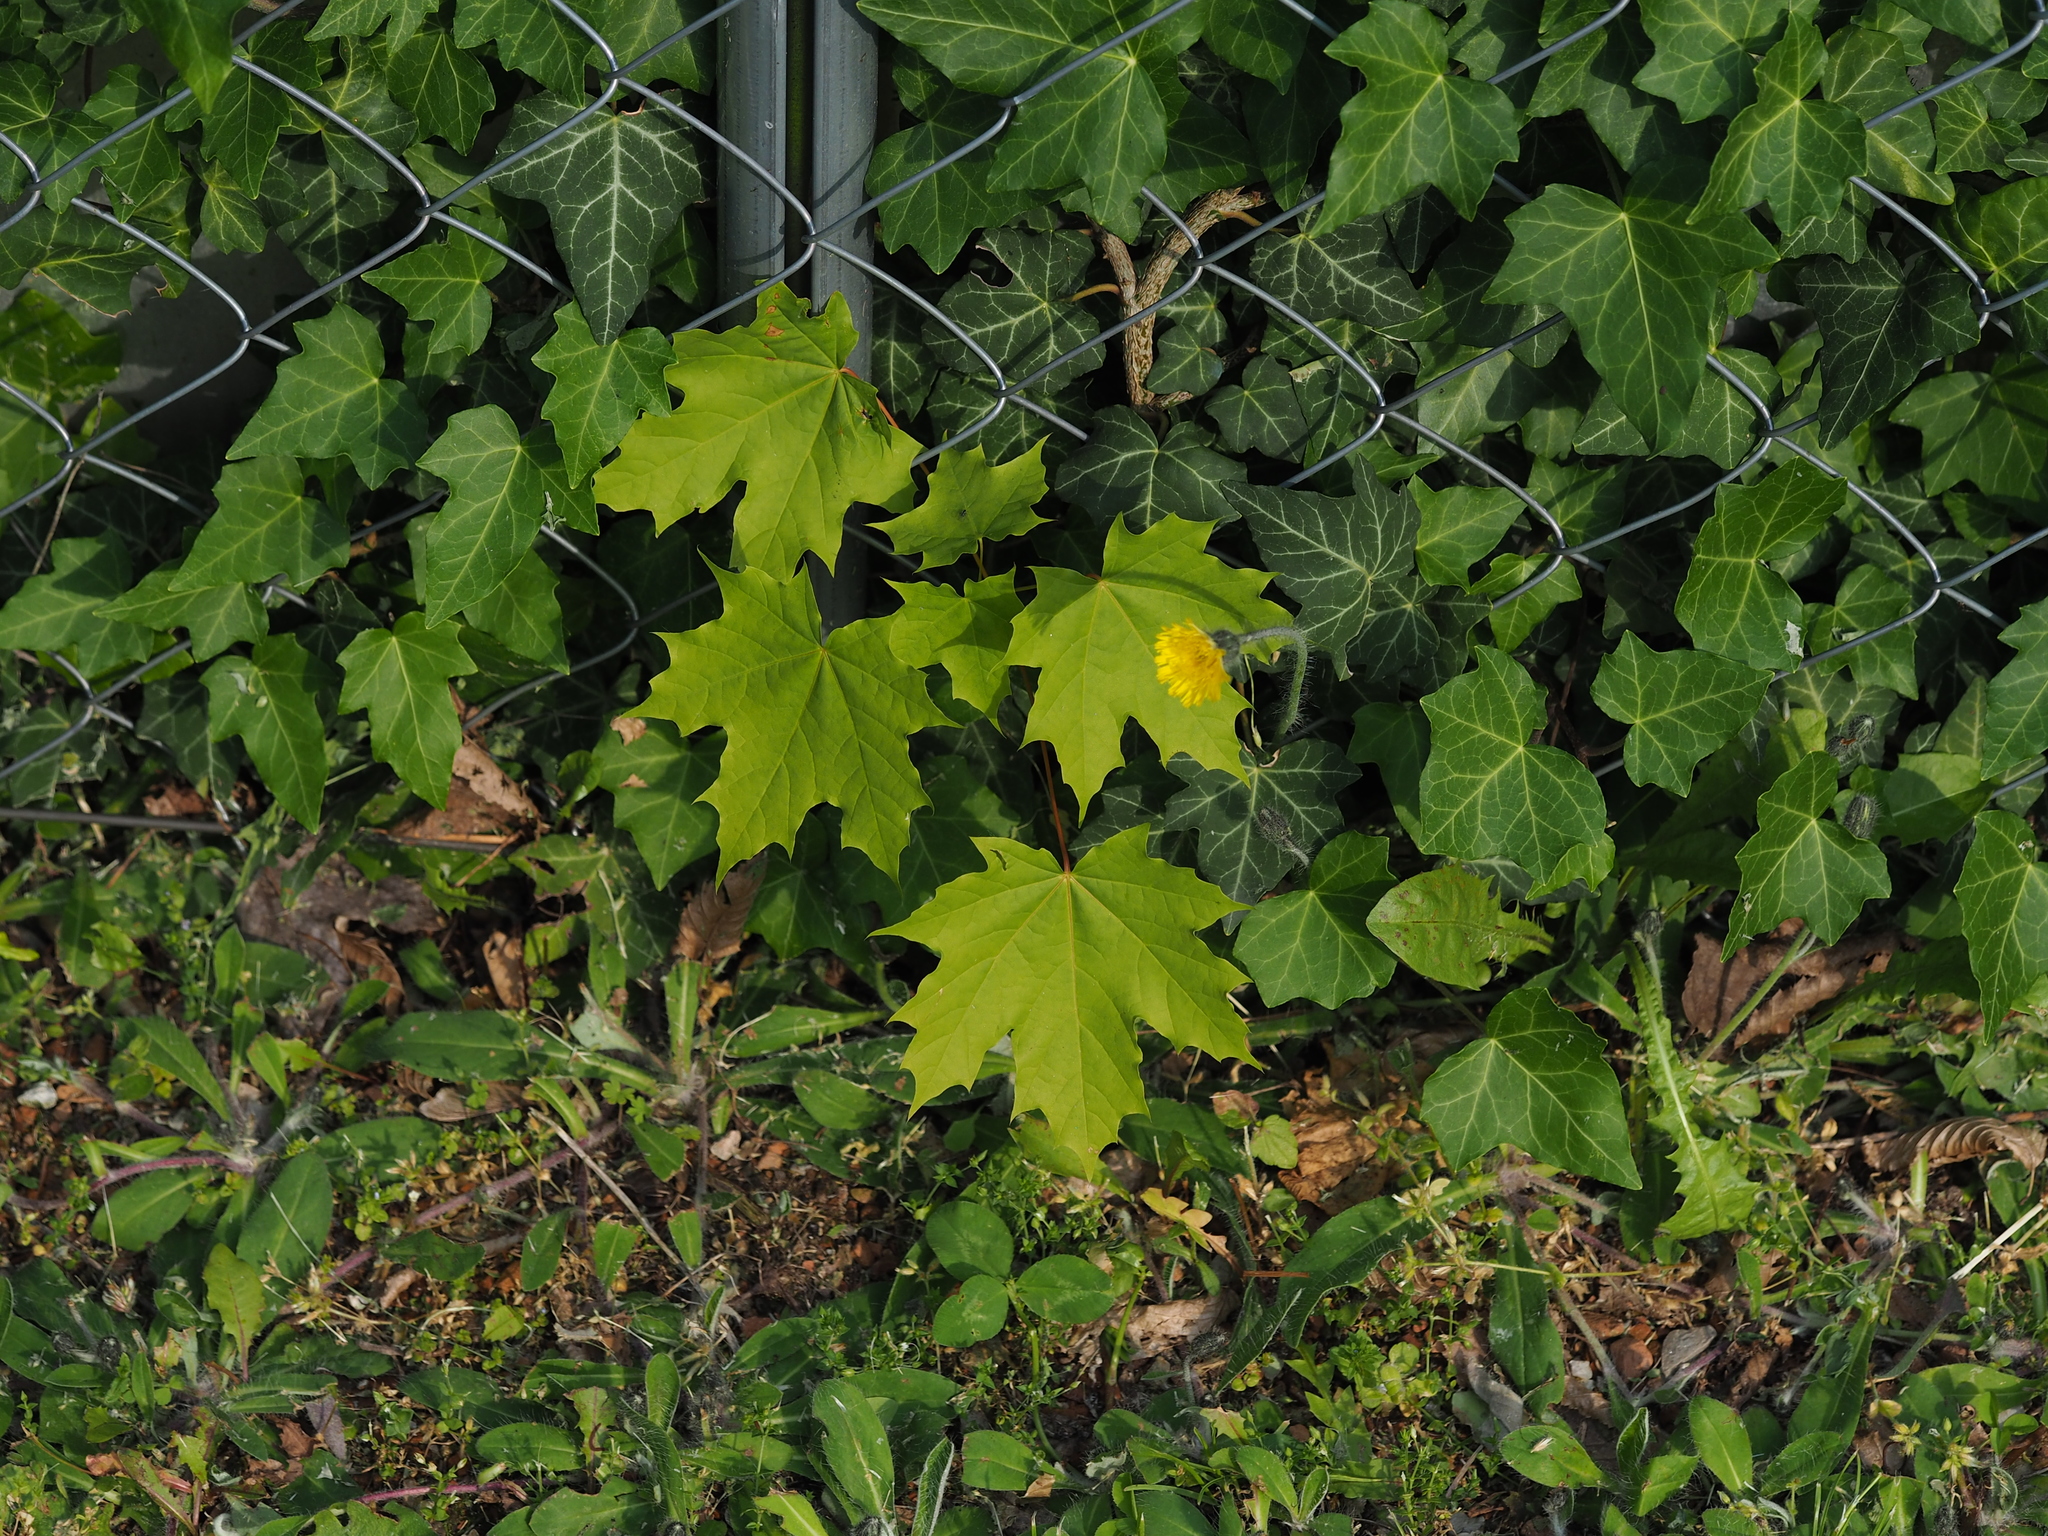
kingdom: Plantae
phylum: Tracheophyta
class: Magnoliopsida
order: Sapindales
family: Sapindaceae
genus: Acer
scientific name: Acer platanoides
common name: Norway maple
